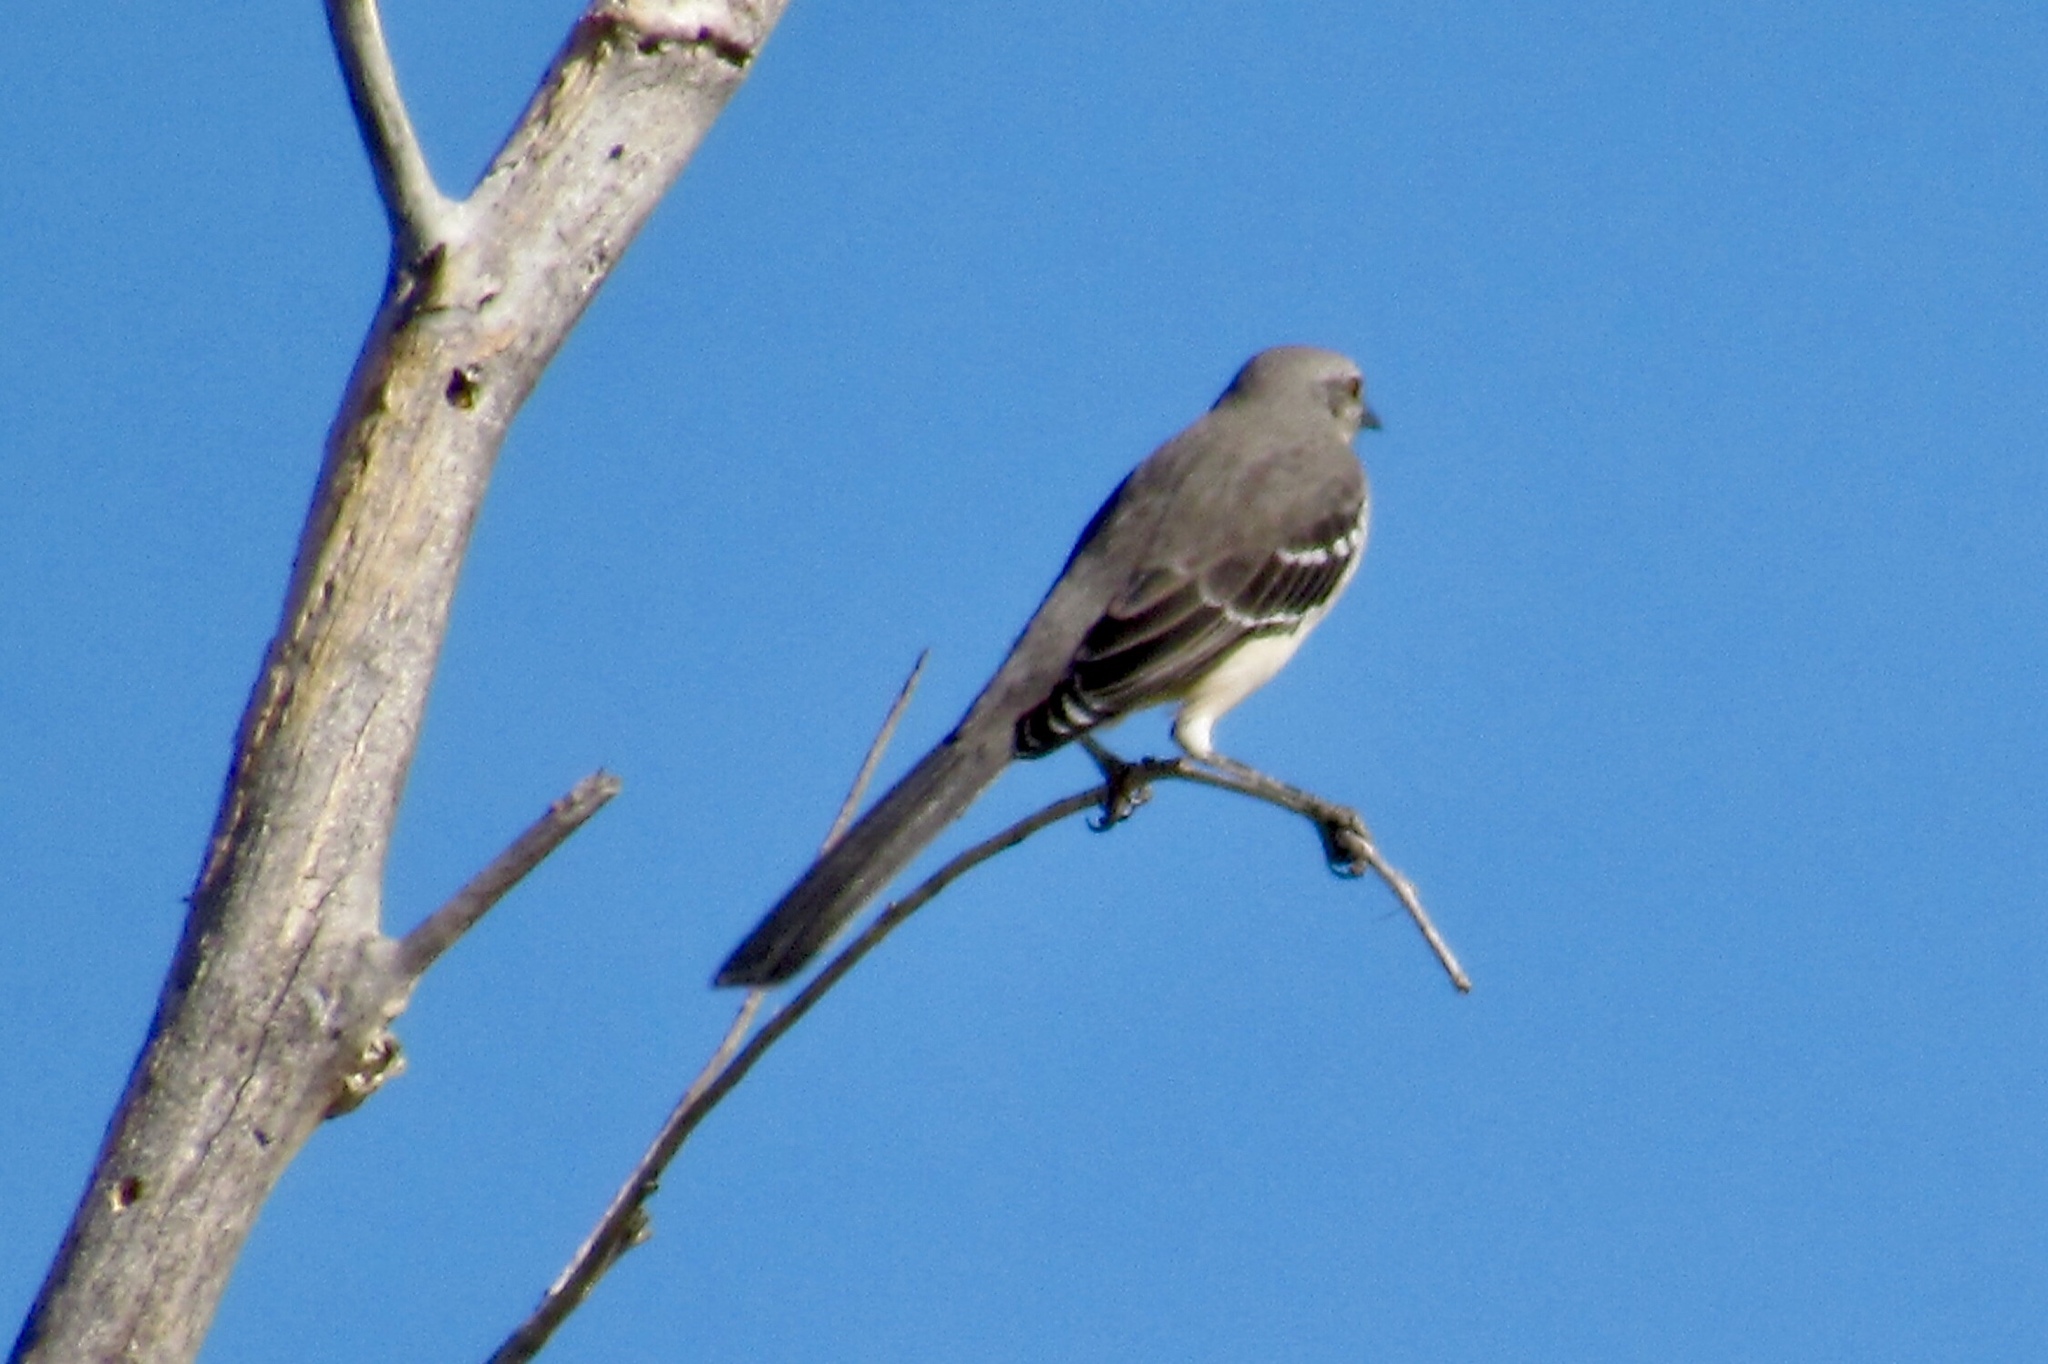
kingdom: Animalia
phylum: Chordata
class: Aves
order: Passeriformes
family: Mimidae
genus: Mimus
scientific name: Mimus polyglottos
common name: Northern mockingbird
